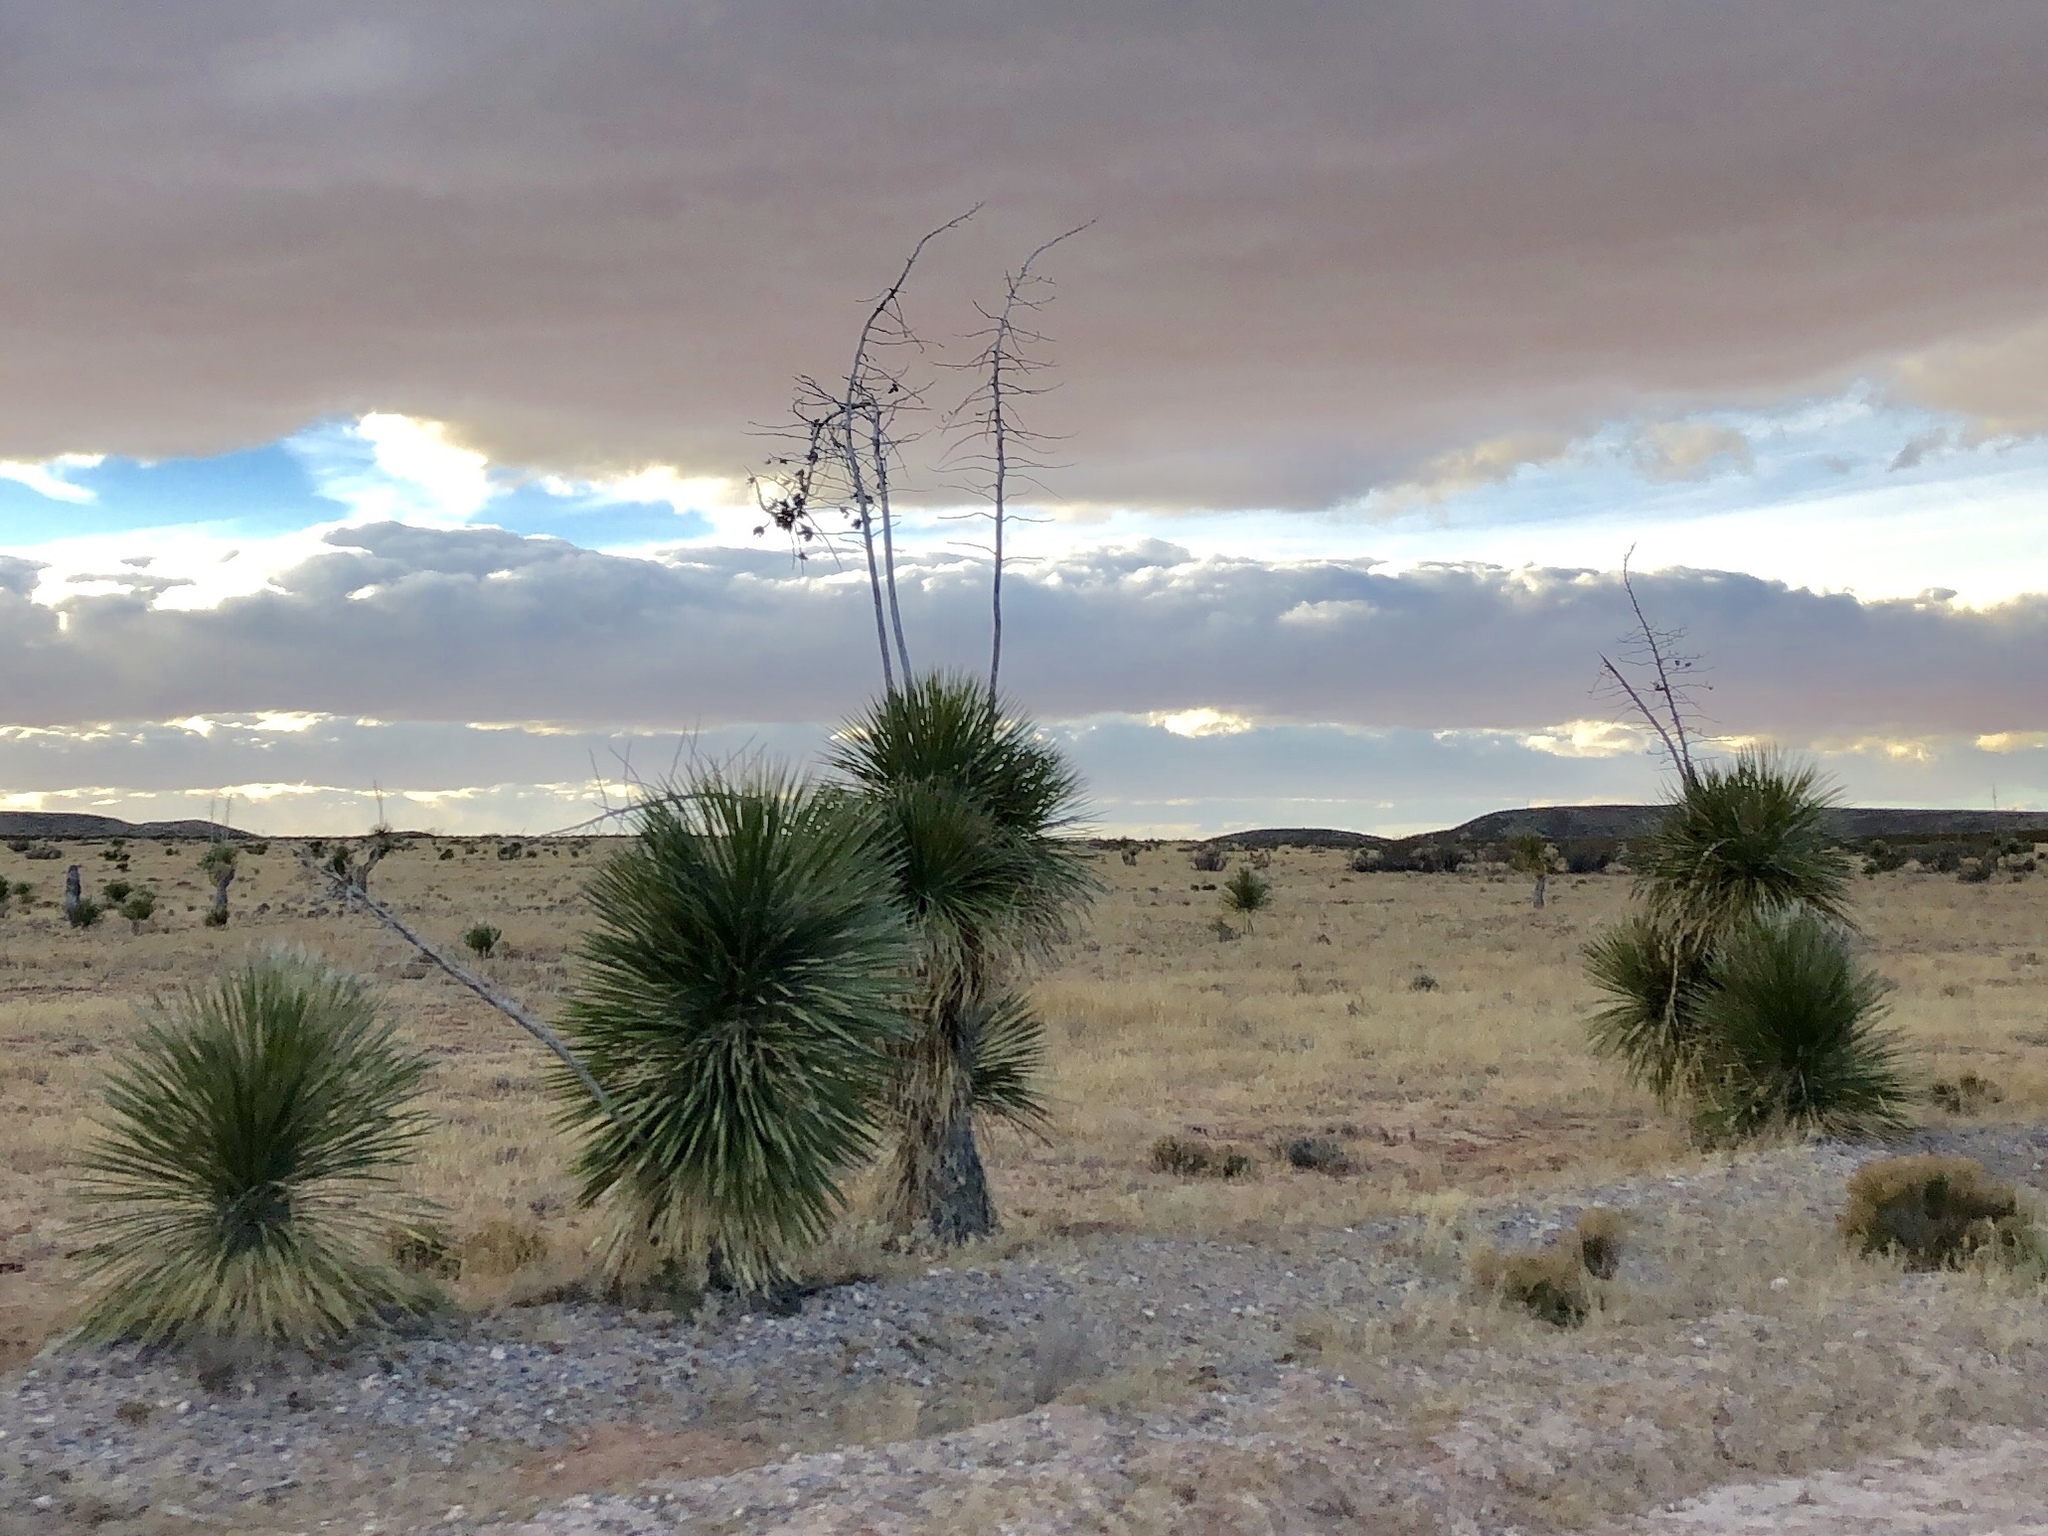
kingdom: Plantae
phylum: Tracheophyta
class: Liliopsida
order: Asparagales
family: Asparagaceae
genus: Yucca
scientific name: Yucca elata
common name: Palmella
